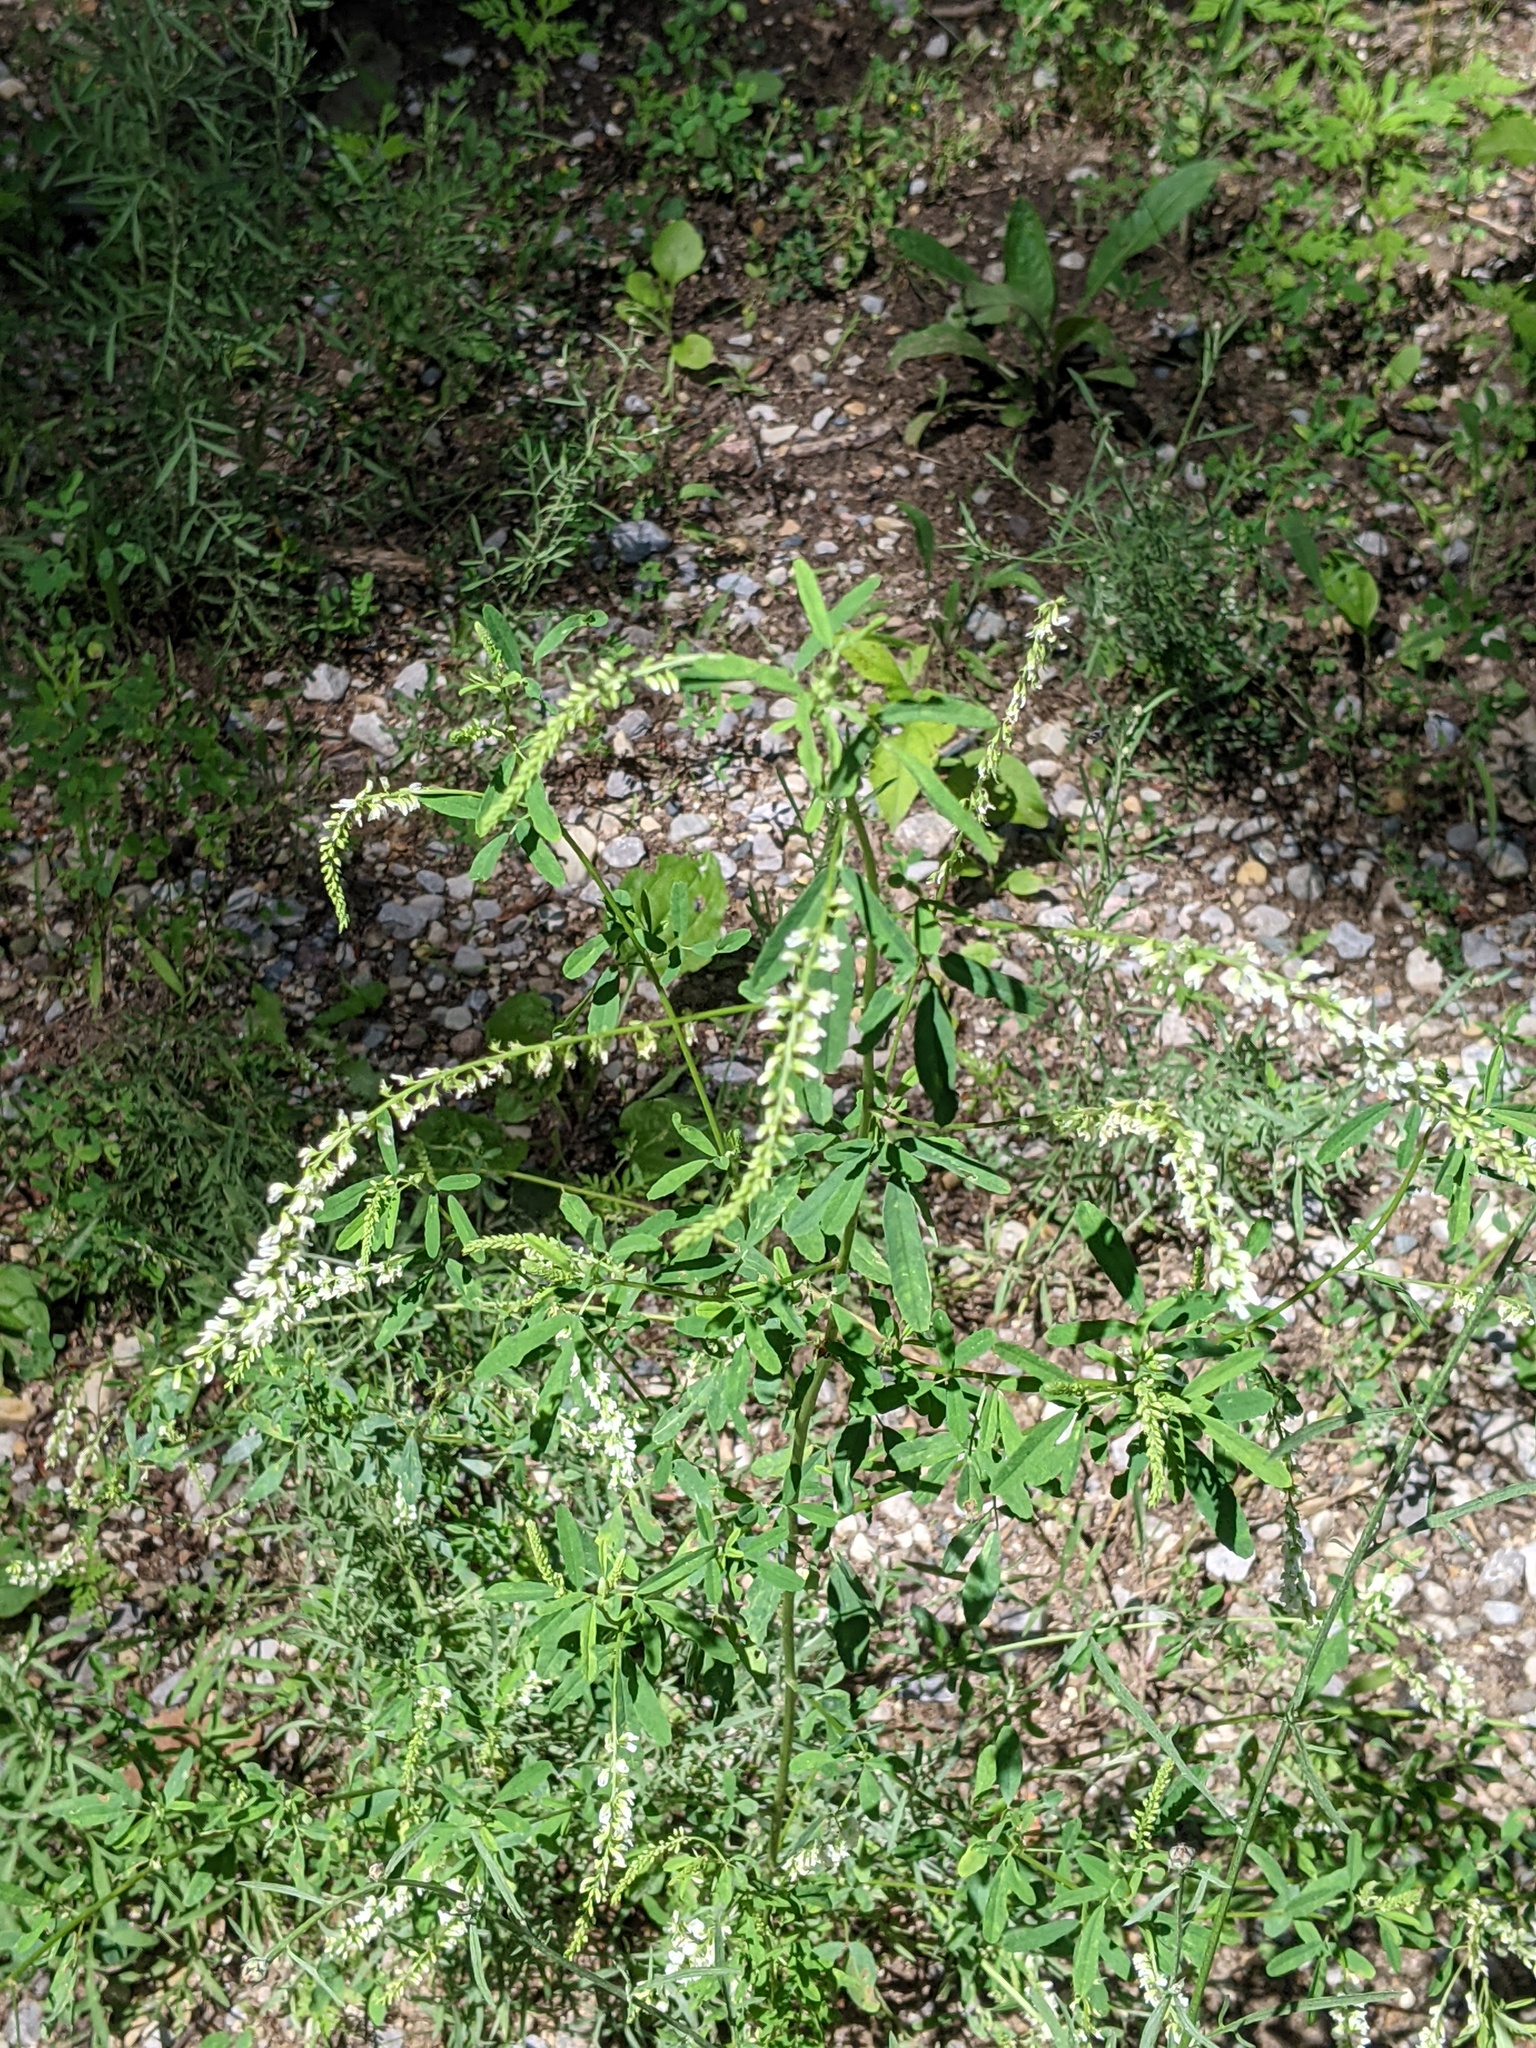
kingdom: Plantae
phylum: Tracheophyta
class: Magnoliopsida
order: Fabales
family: Fabaceae
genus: Melilotus
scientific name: Melilotus albus
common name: White melilot
